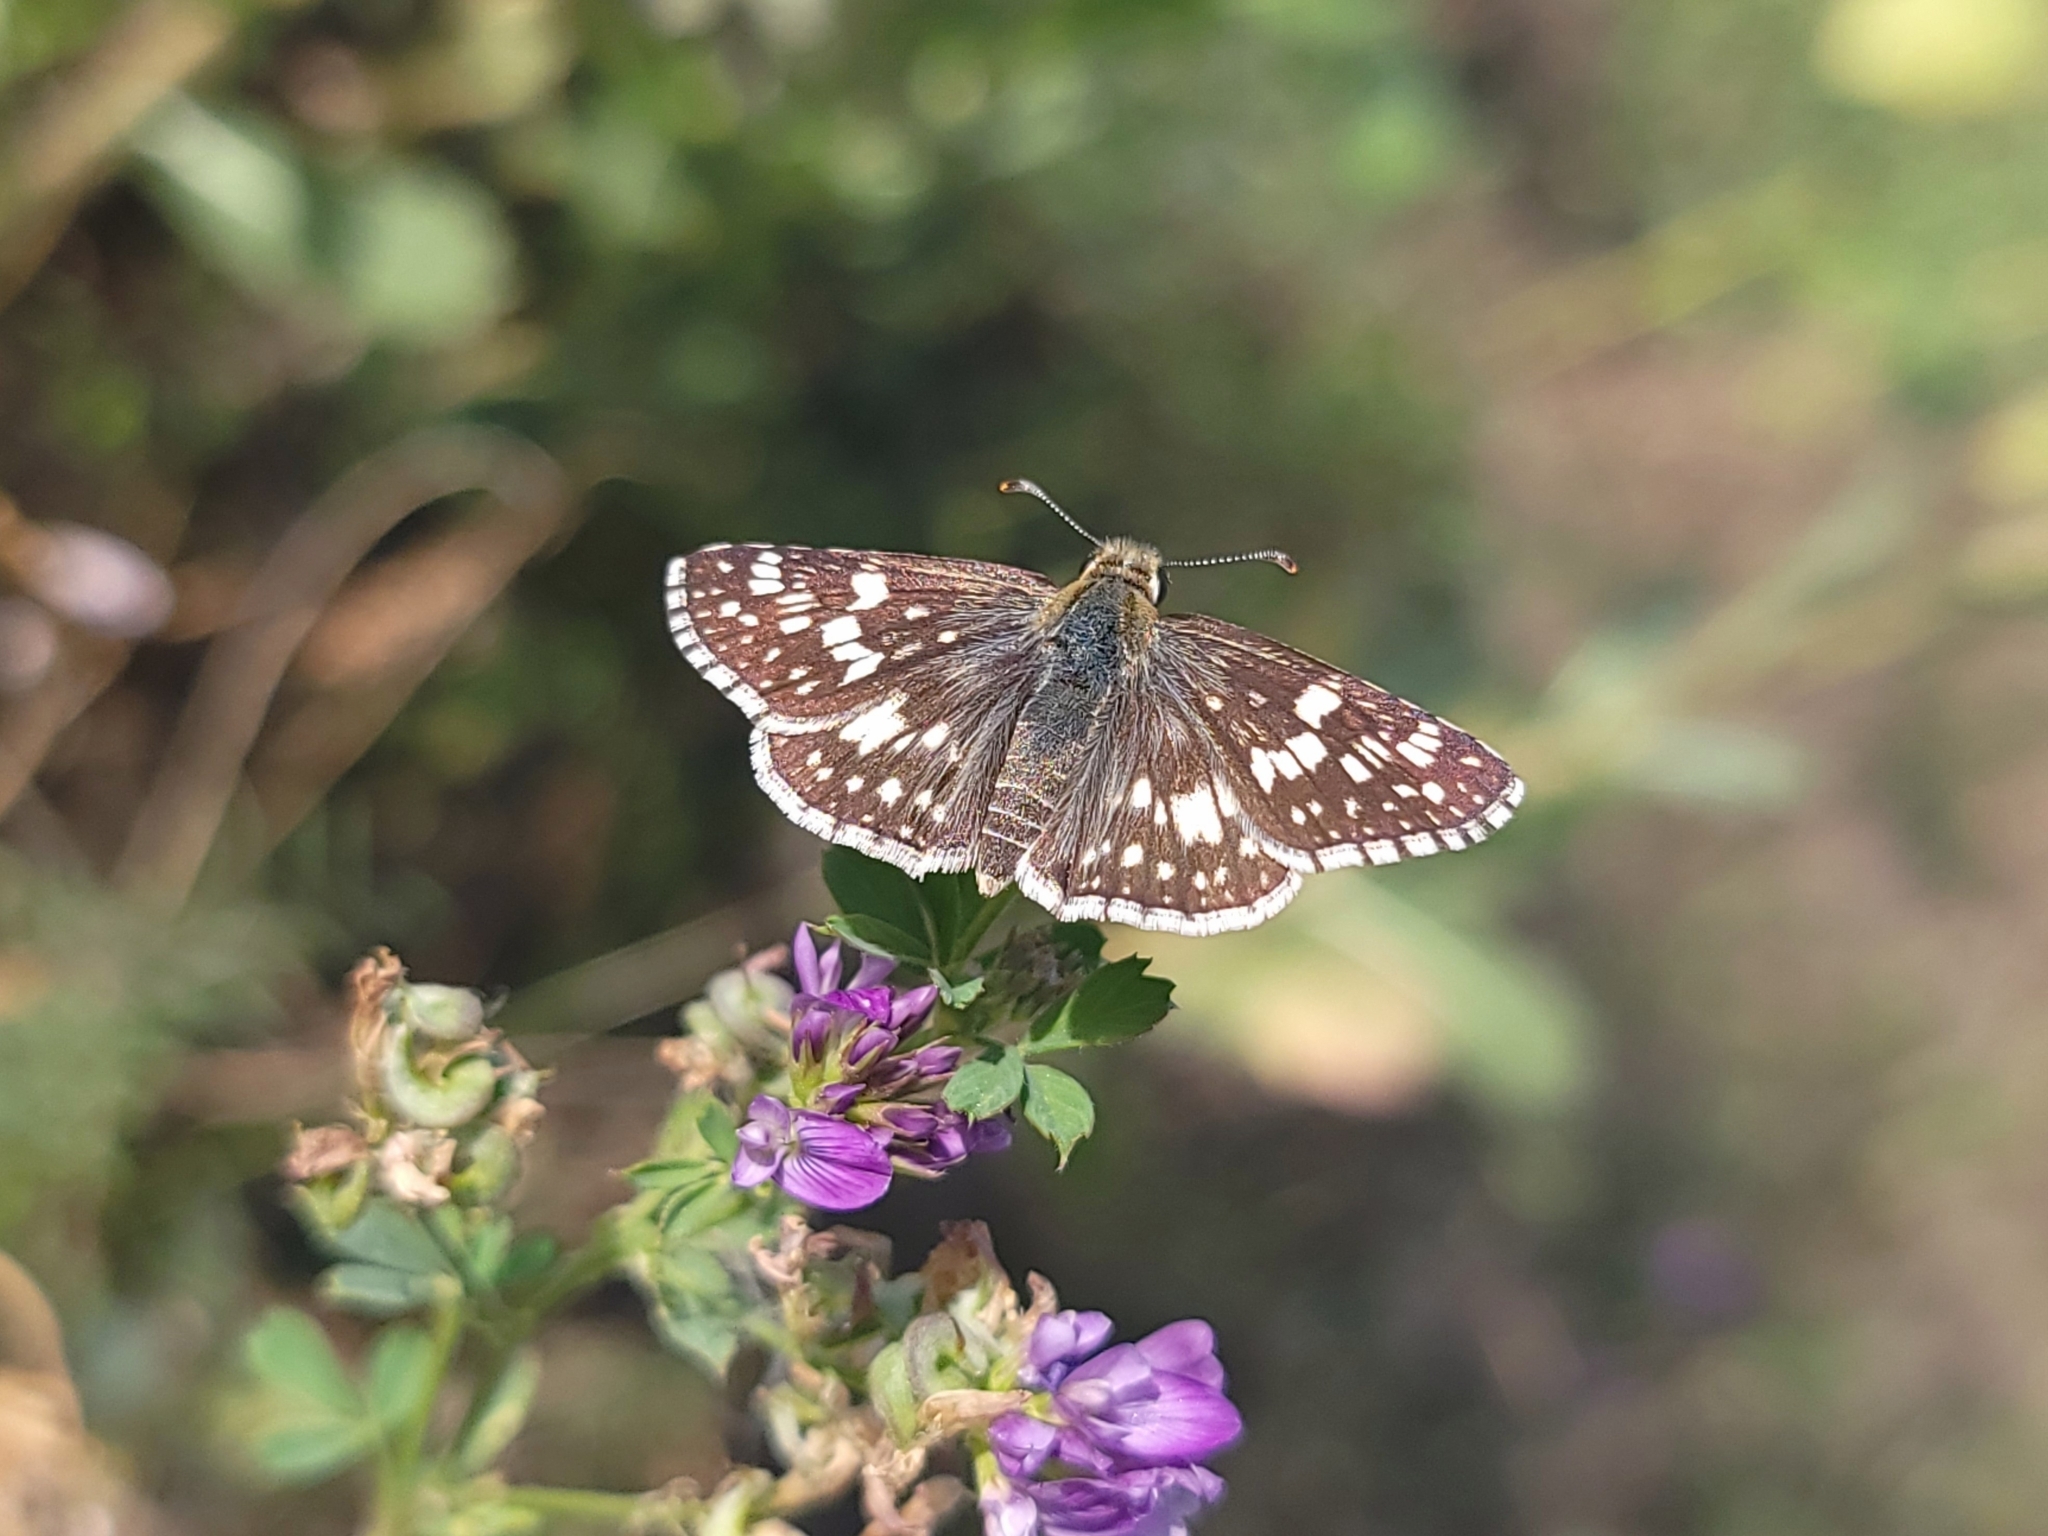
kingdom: Animalia
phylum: Arthropoda
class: Insecta
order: Lepidoptera
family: Hesperiidae
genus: Burnsius
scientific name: Burnsius communis
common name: Common checkered-skipper
